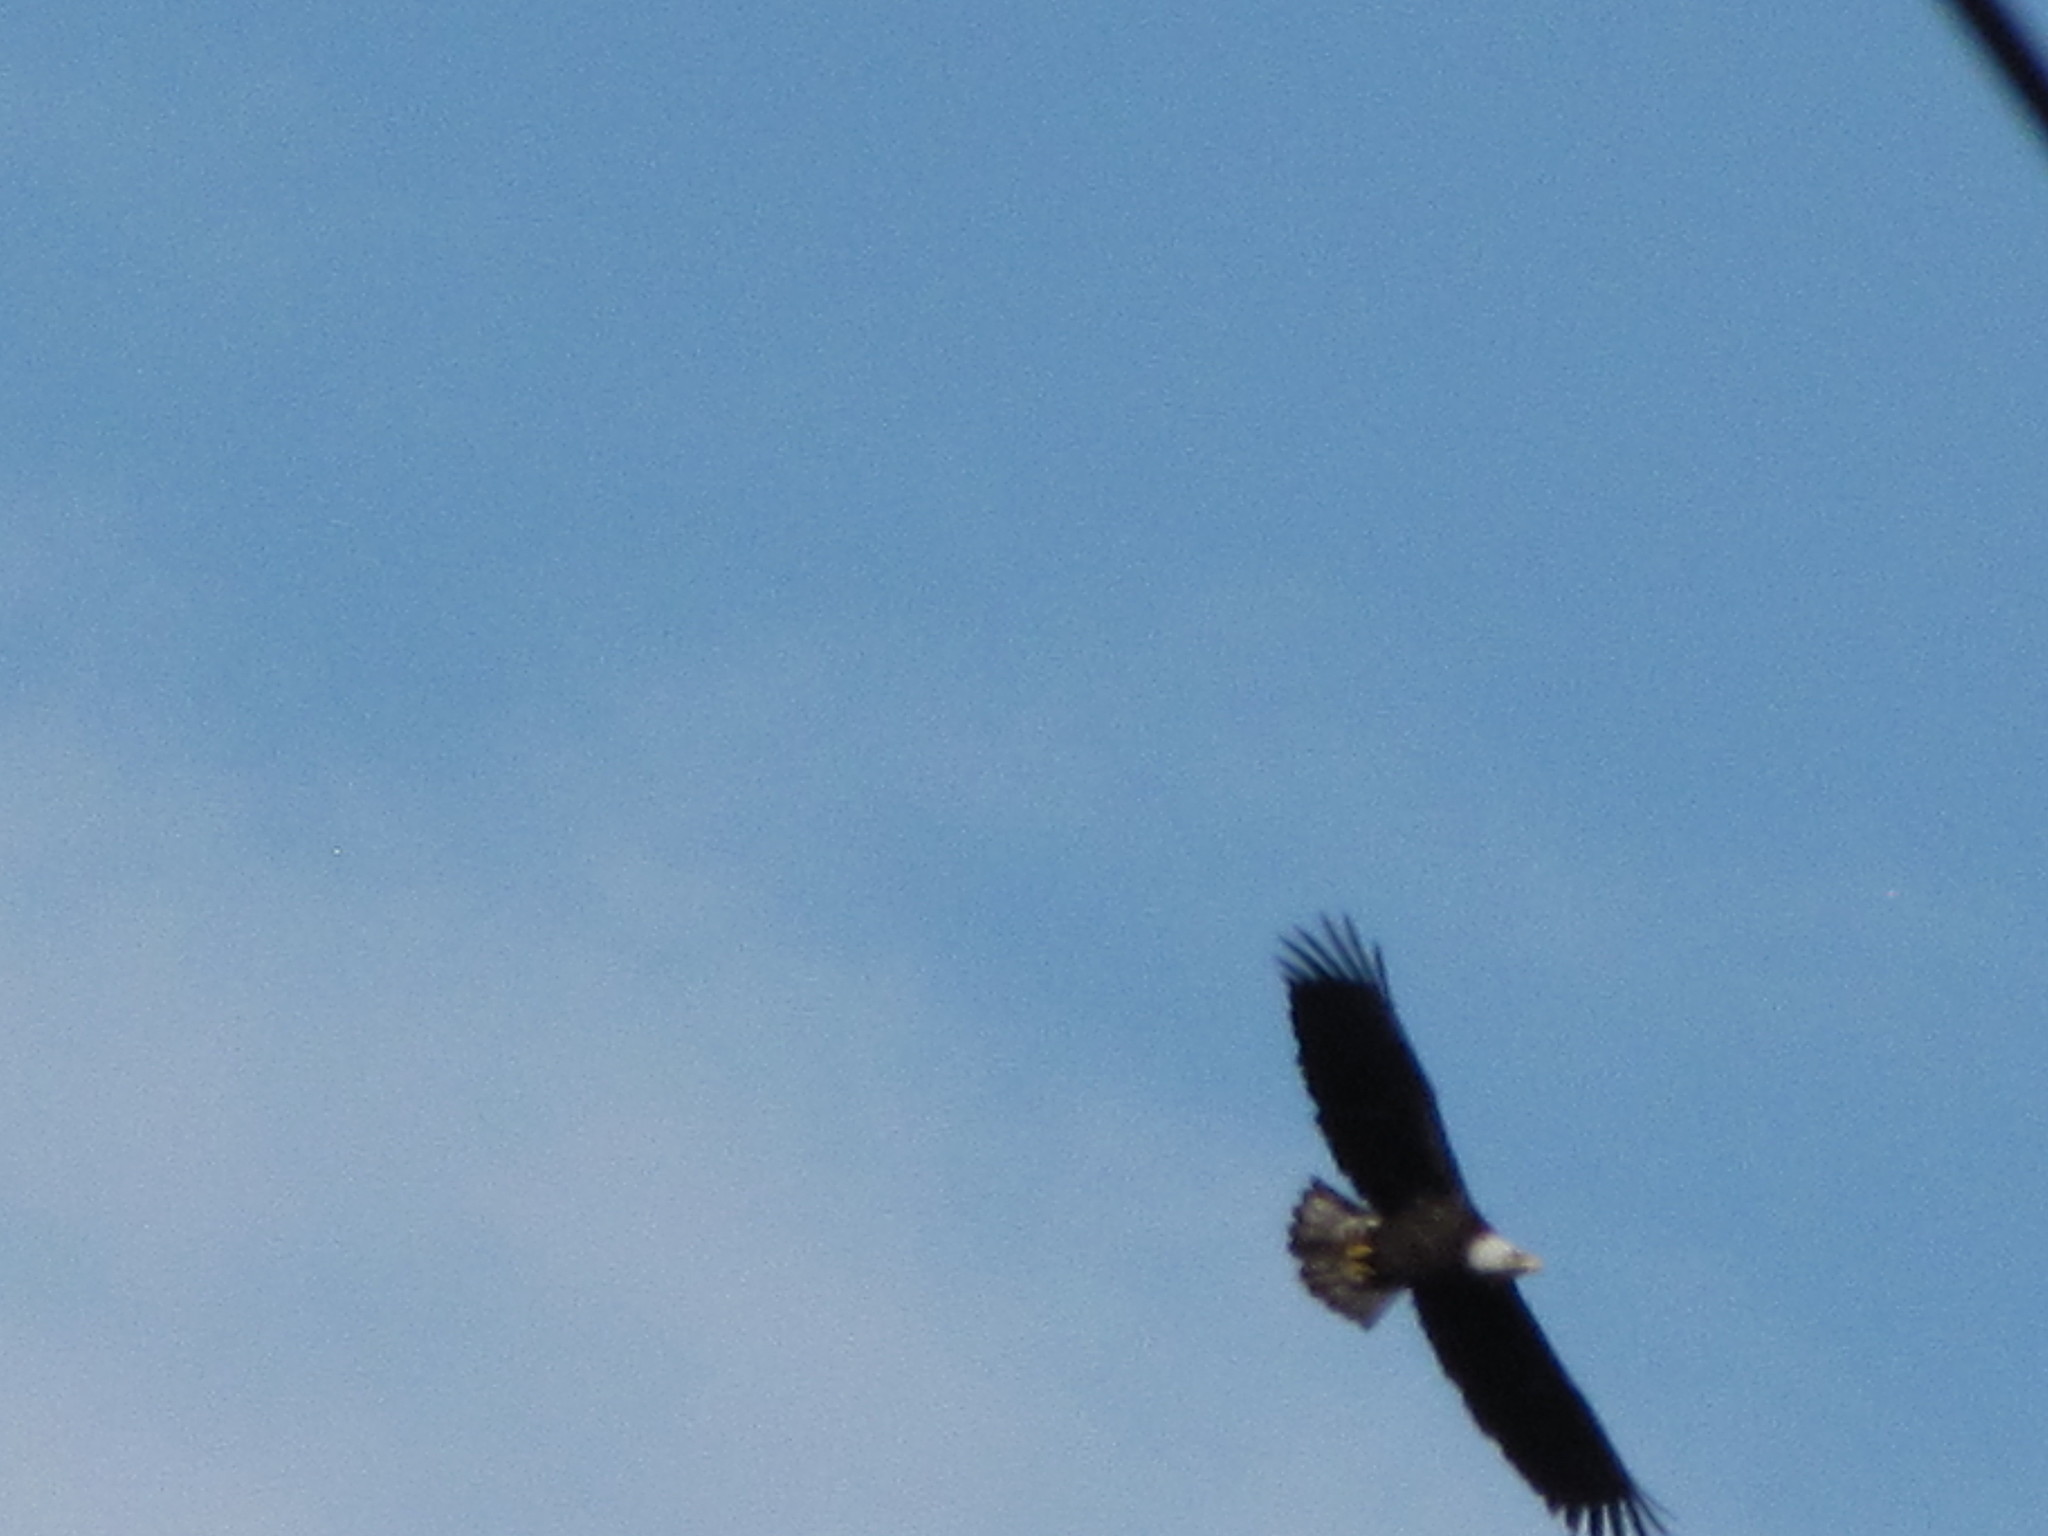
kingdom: Animalia
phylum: Chordata
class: Aves
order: Accipitriformes
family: Accipitridae
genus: Haliaeetus
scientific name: Haliaeetus leucocephalus
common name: Bald eagle
